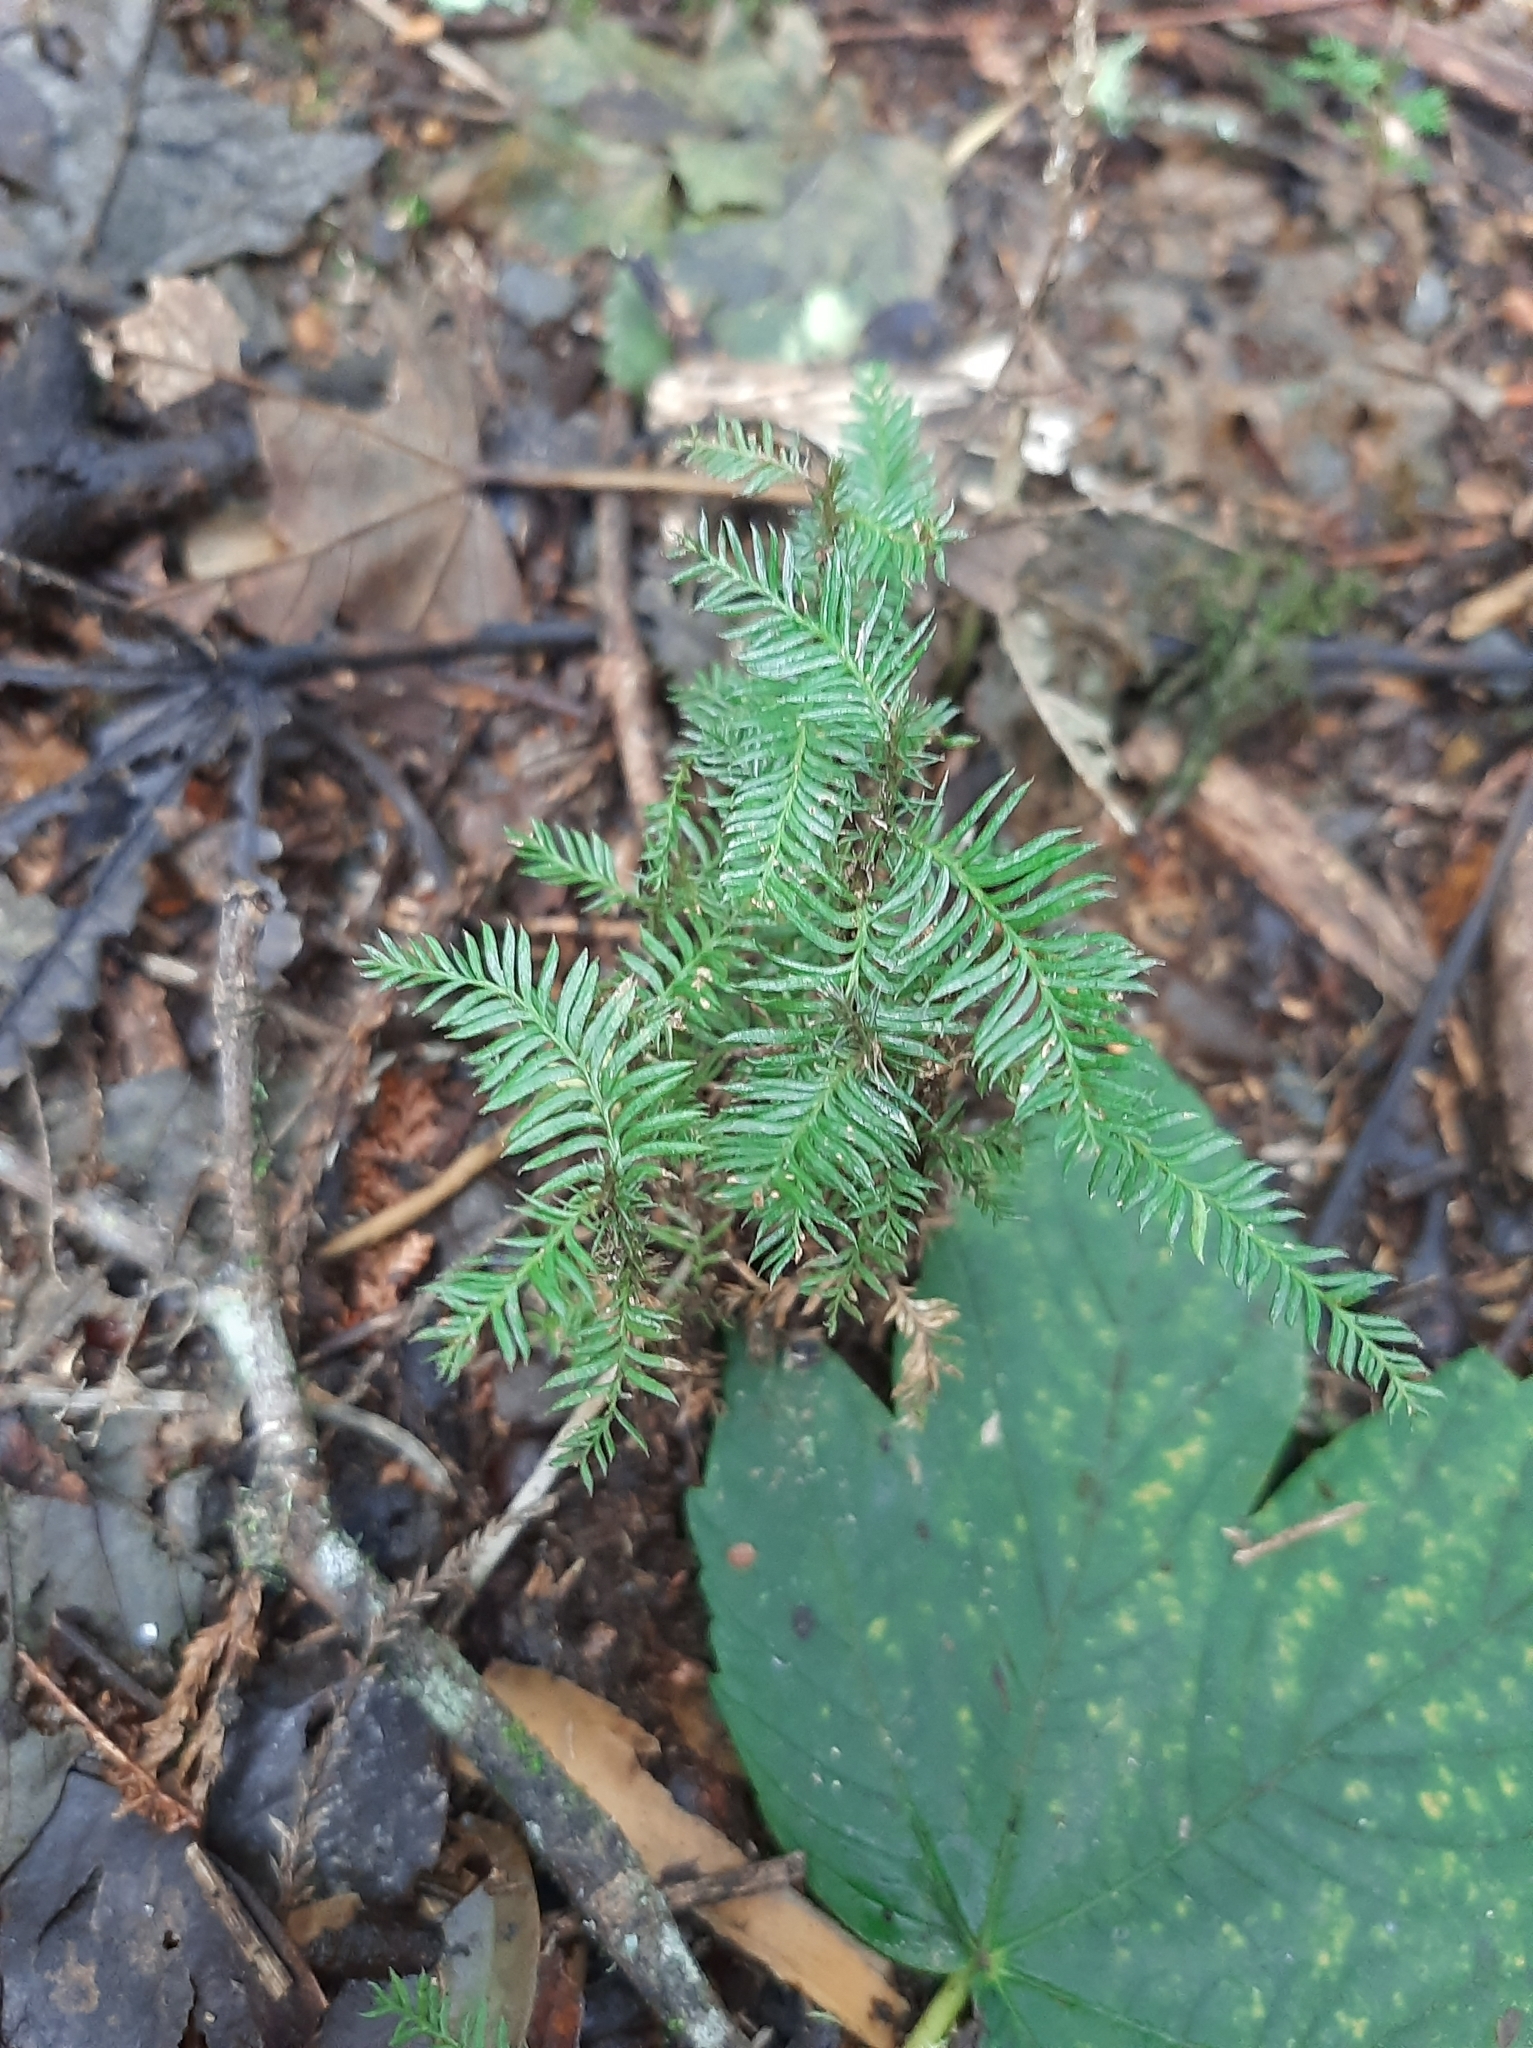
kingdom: Plantae
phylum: Tracheophyta
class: Pinopsida
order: Pinales
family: Podocarpaceae
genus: Dacrycarpus
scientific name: Dacrycarpus dacrydioides
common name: White pine
